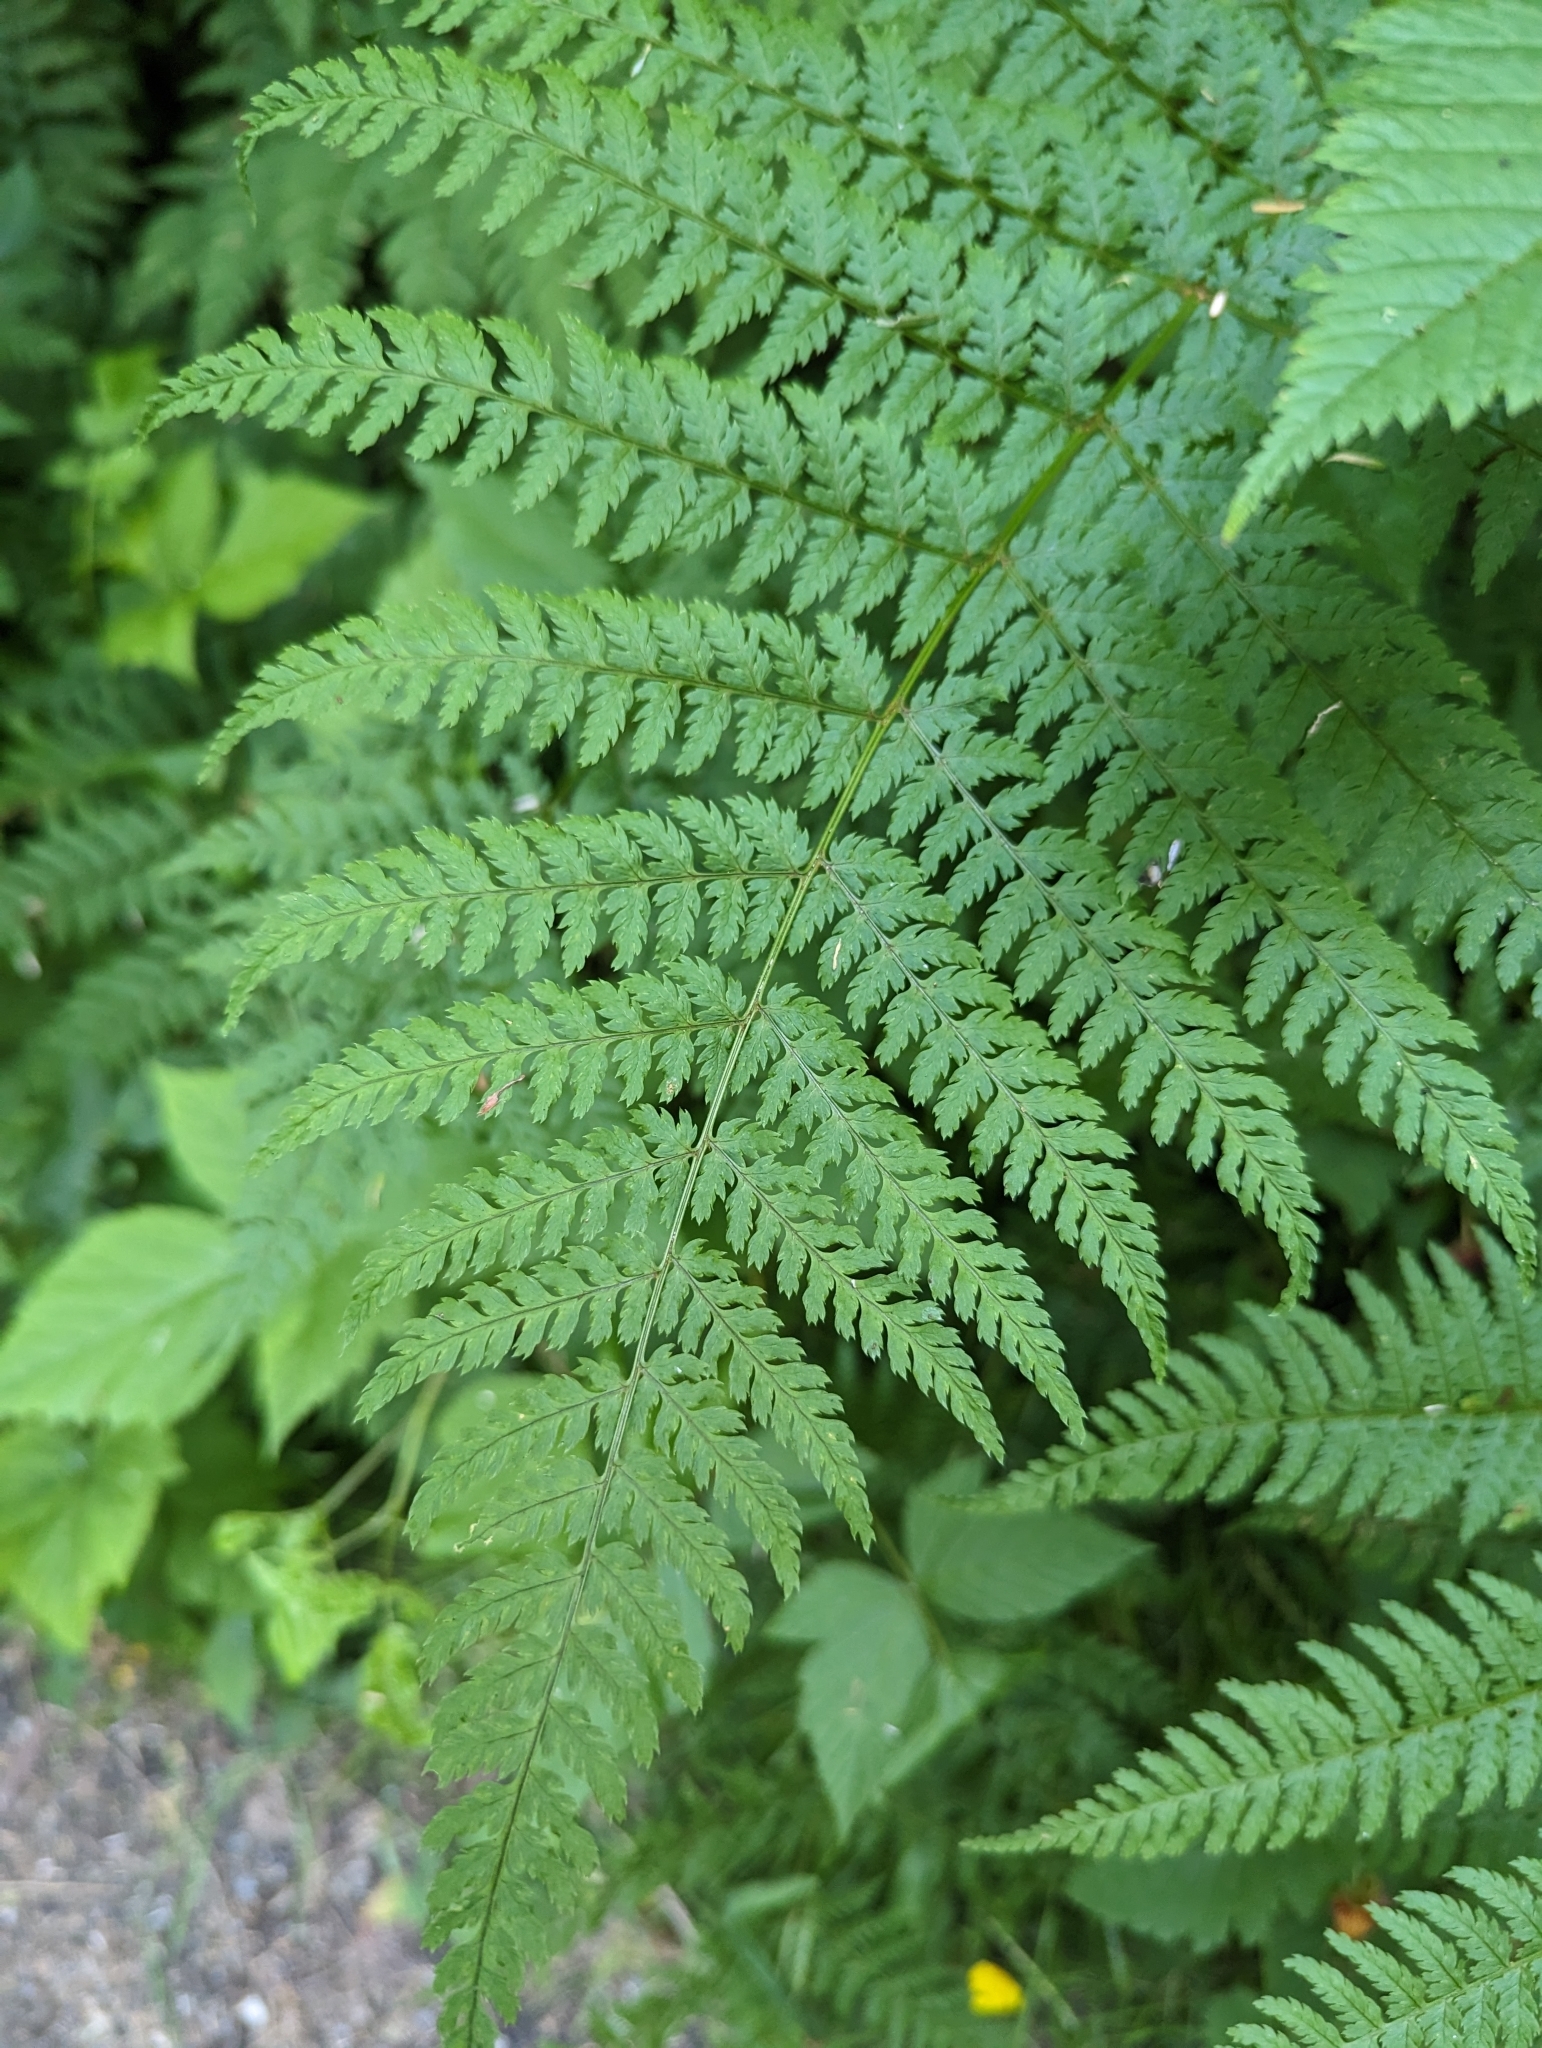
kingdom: Plantae
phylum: Tracheophyta
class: Polypodiopsida
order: Polypodiales
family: Dryopteridaceae
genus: Dryopteris
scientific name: Dryopteris expansa
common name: Northern buckler fern
